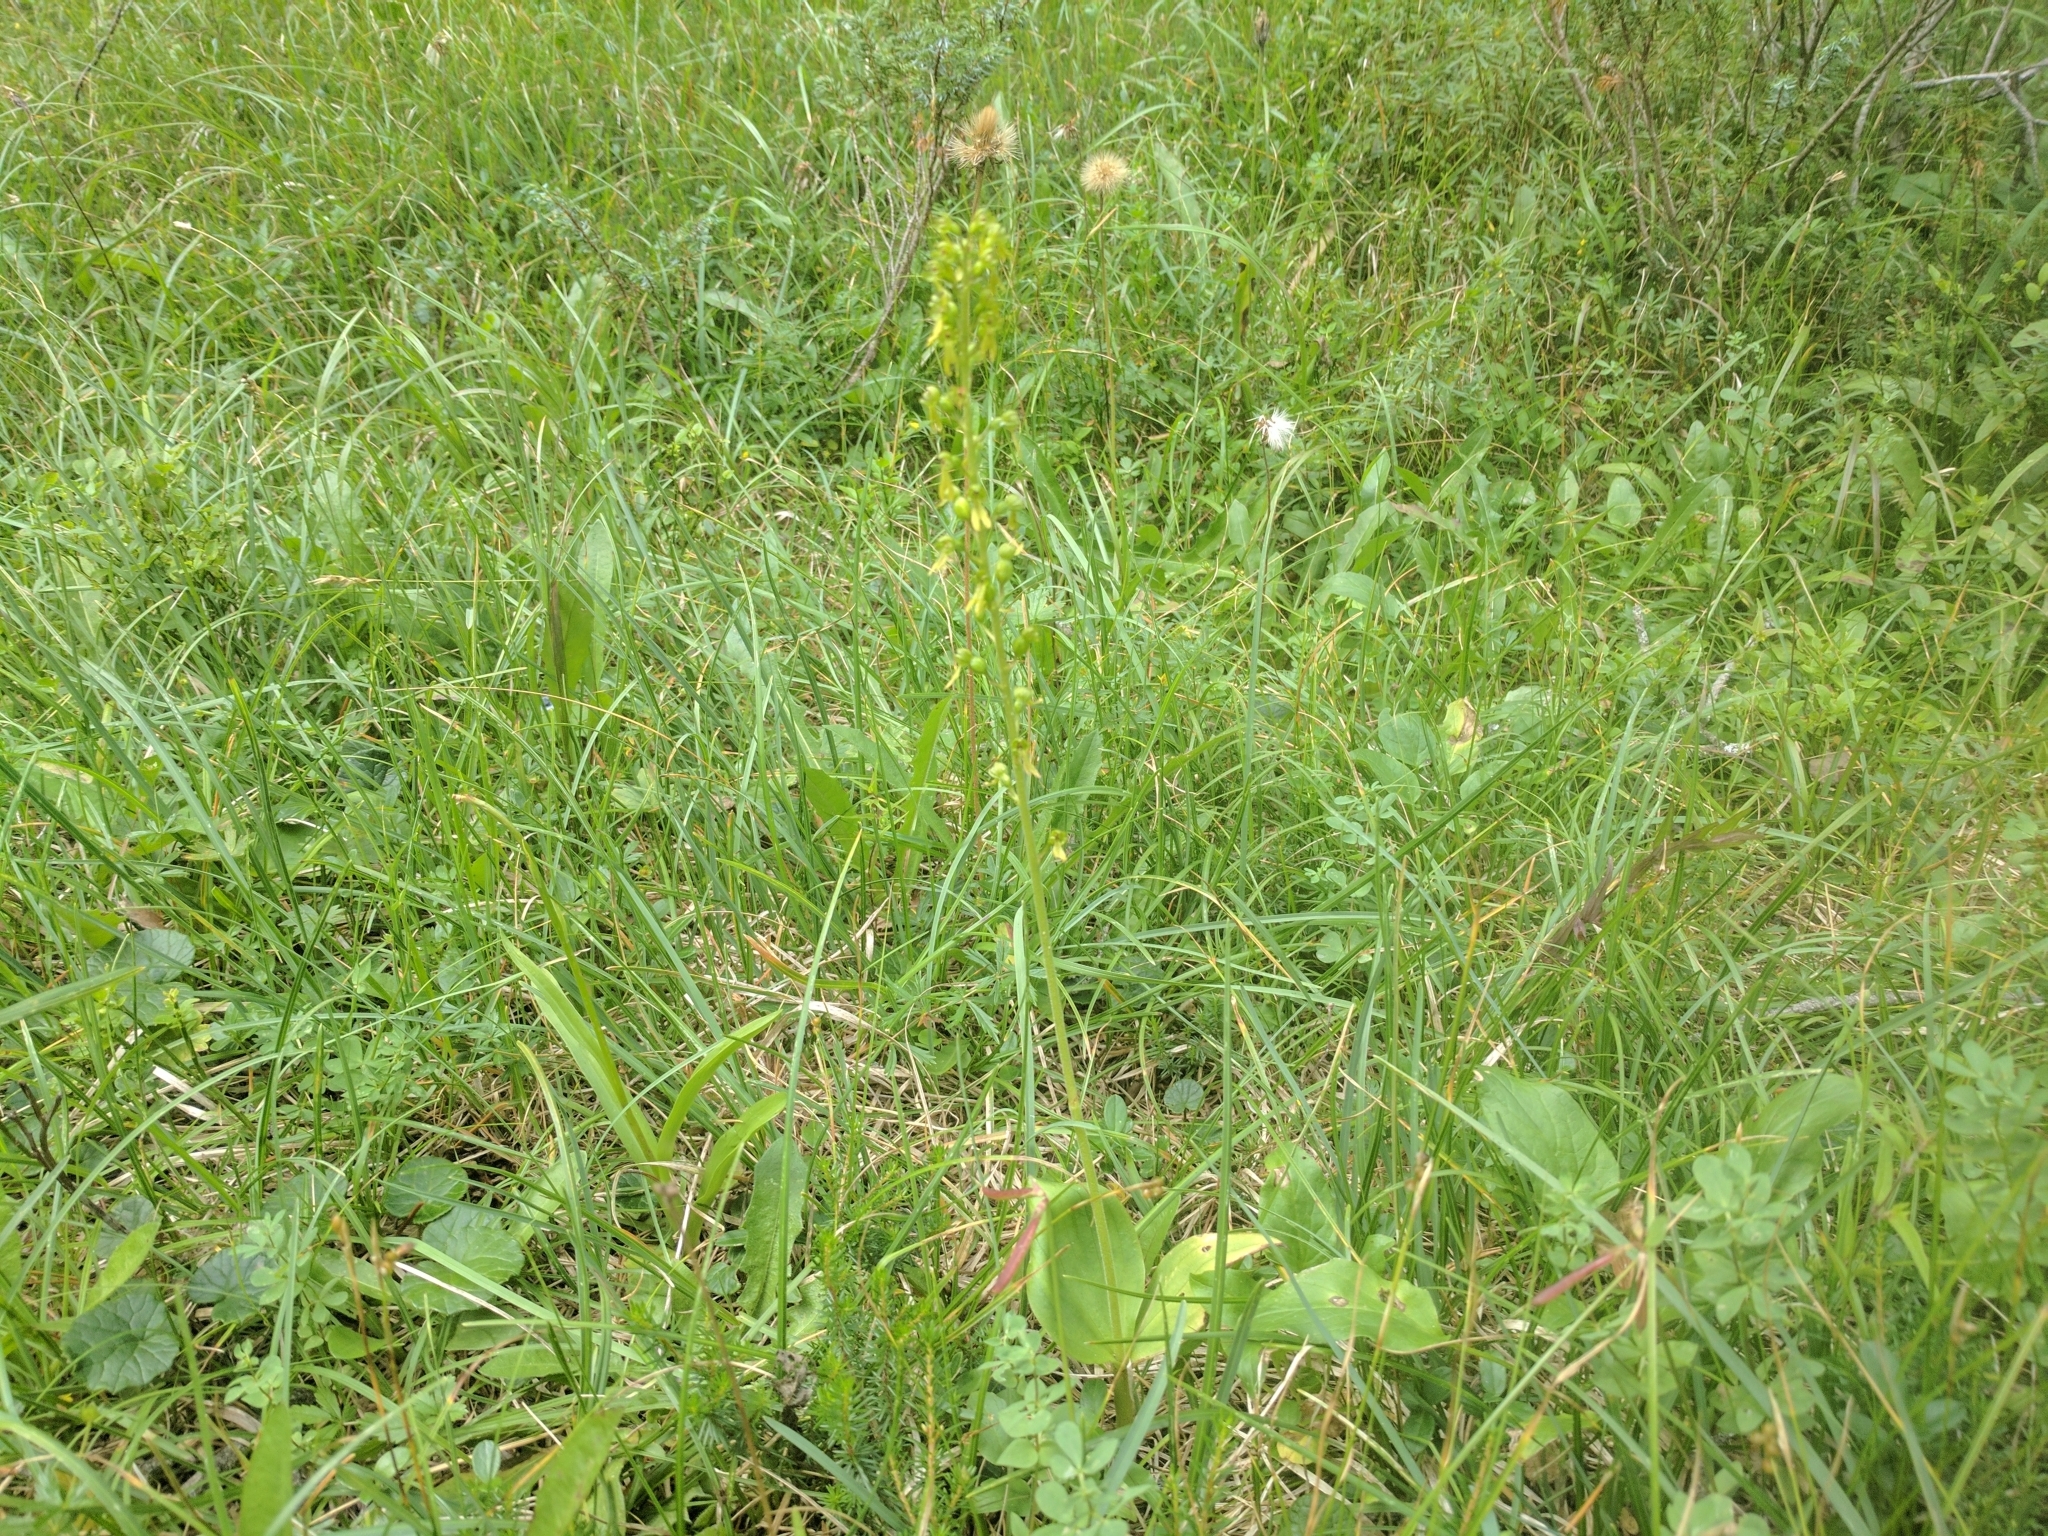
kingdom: Plantae
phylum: Tracheophyta
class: Liliopsida
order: Asparagales
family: Orchidaceae
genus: Neottia
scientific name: Neottia ovata
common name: Common twayblade
